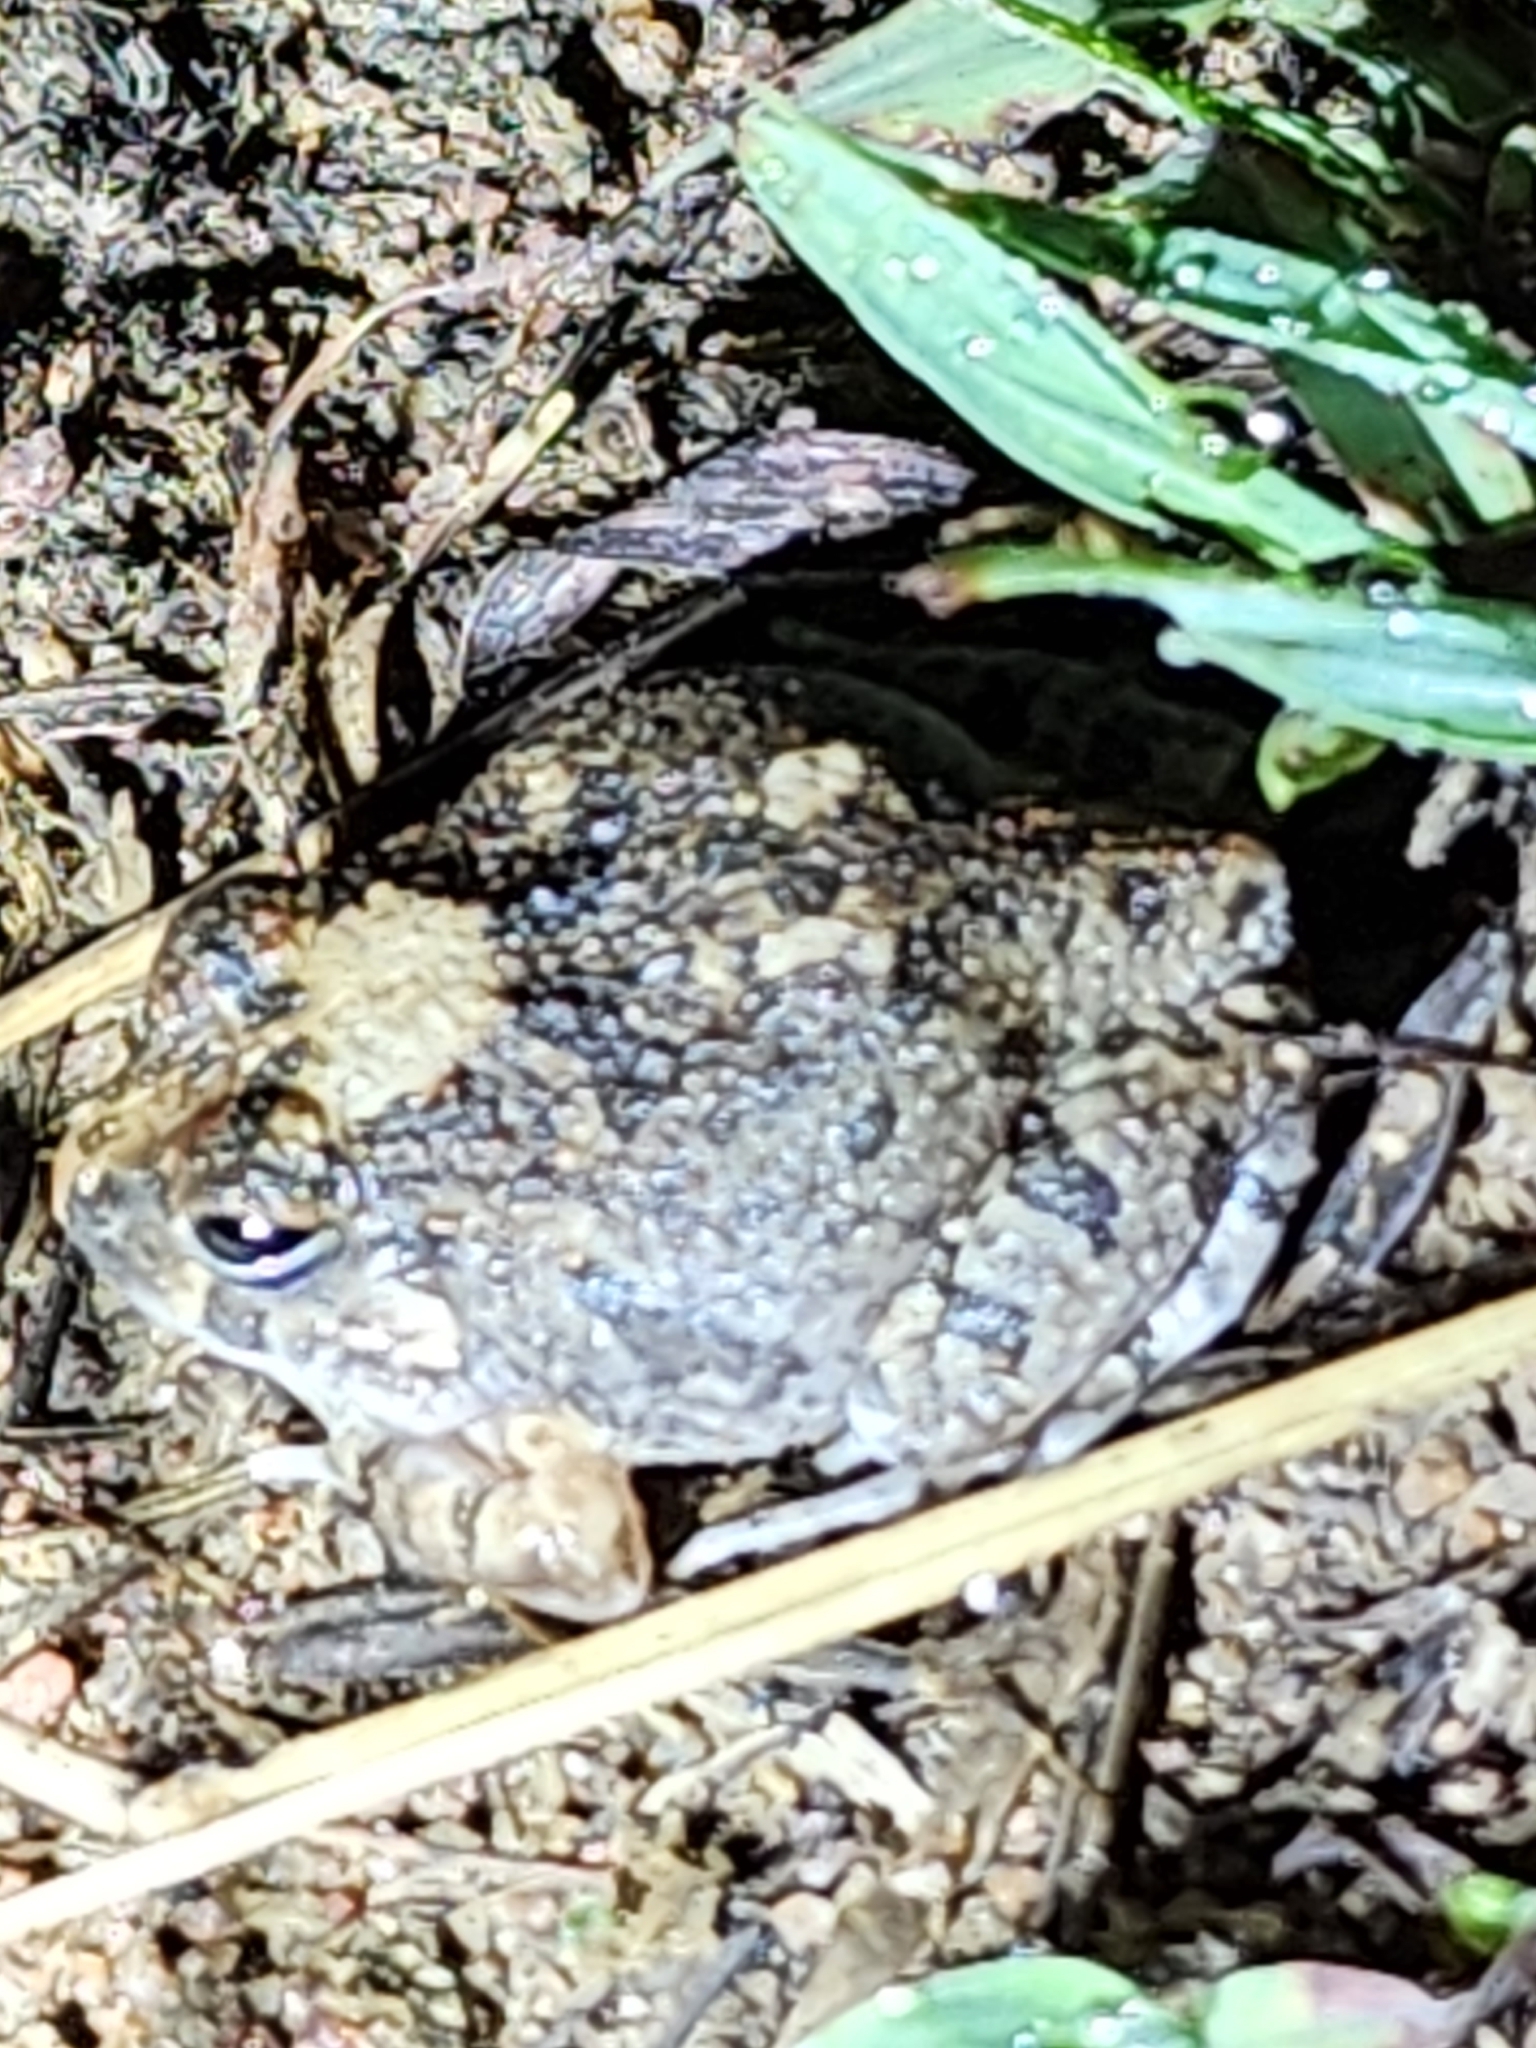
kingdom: Animalia
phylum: Chordata
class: Amphibia
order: Anura
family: Limnodynastidae
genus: Platyplectrum
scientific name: Platyplectrum ornatum
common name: Ornate burrowing frog
